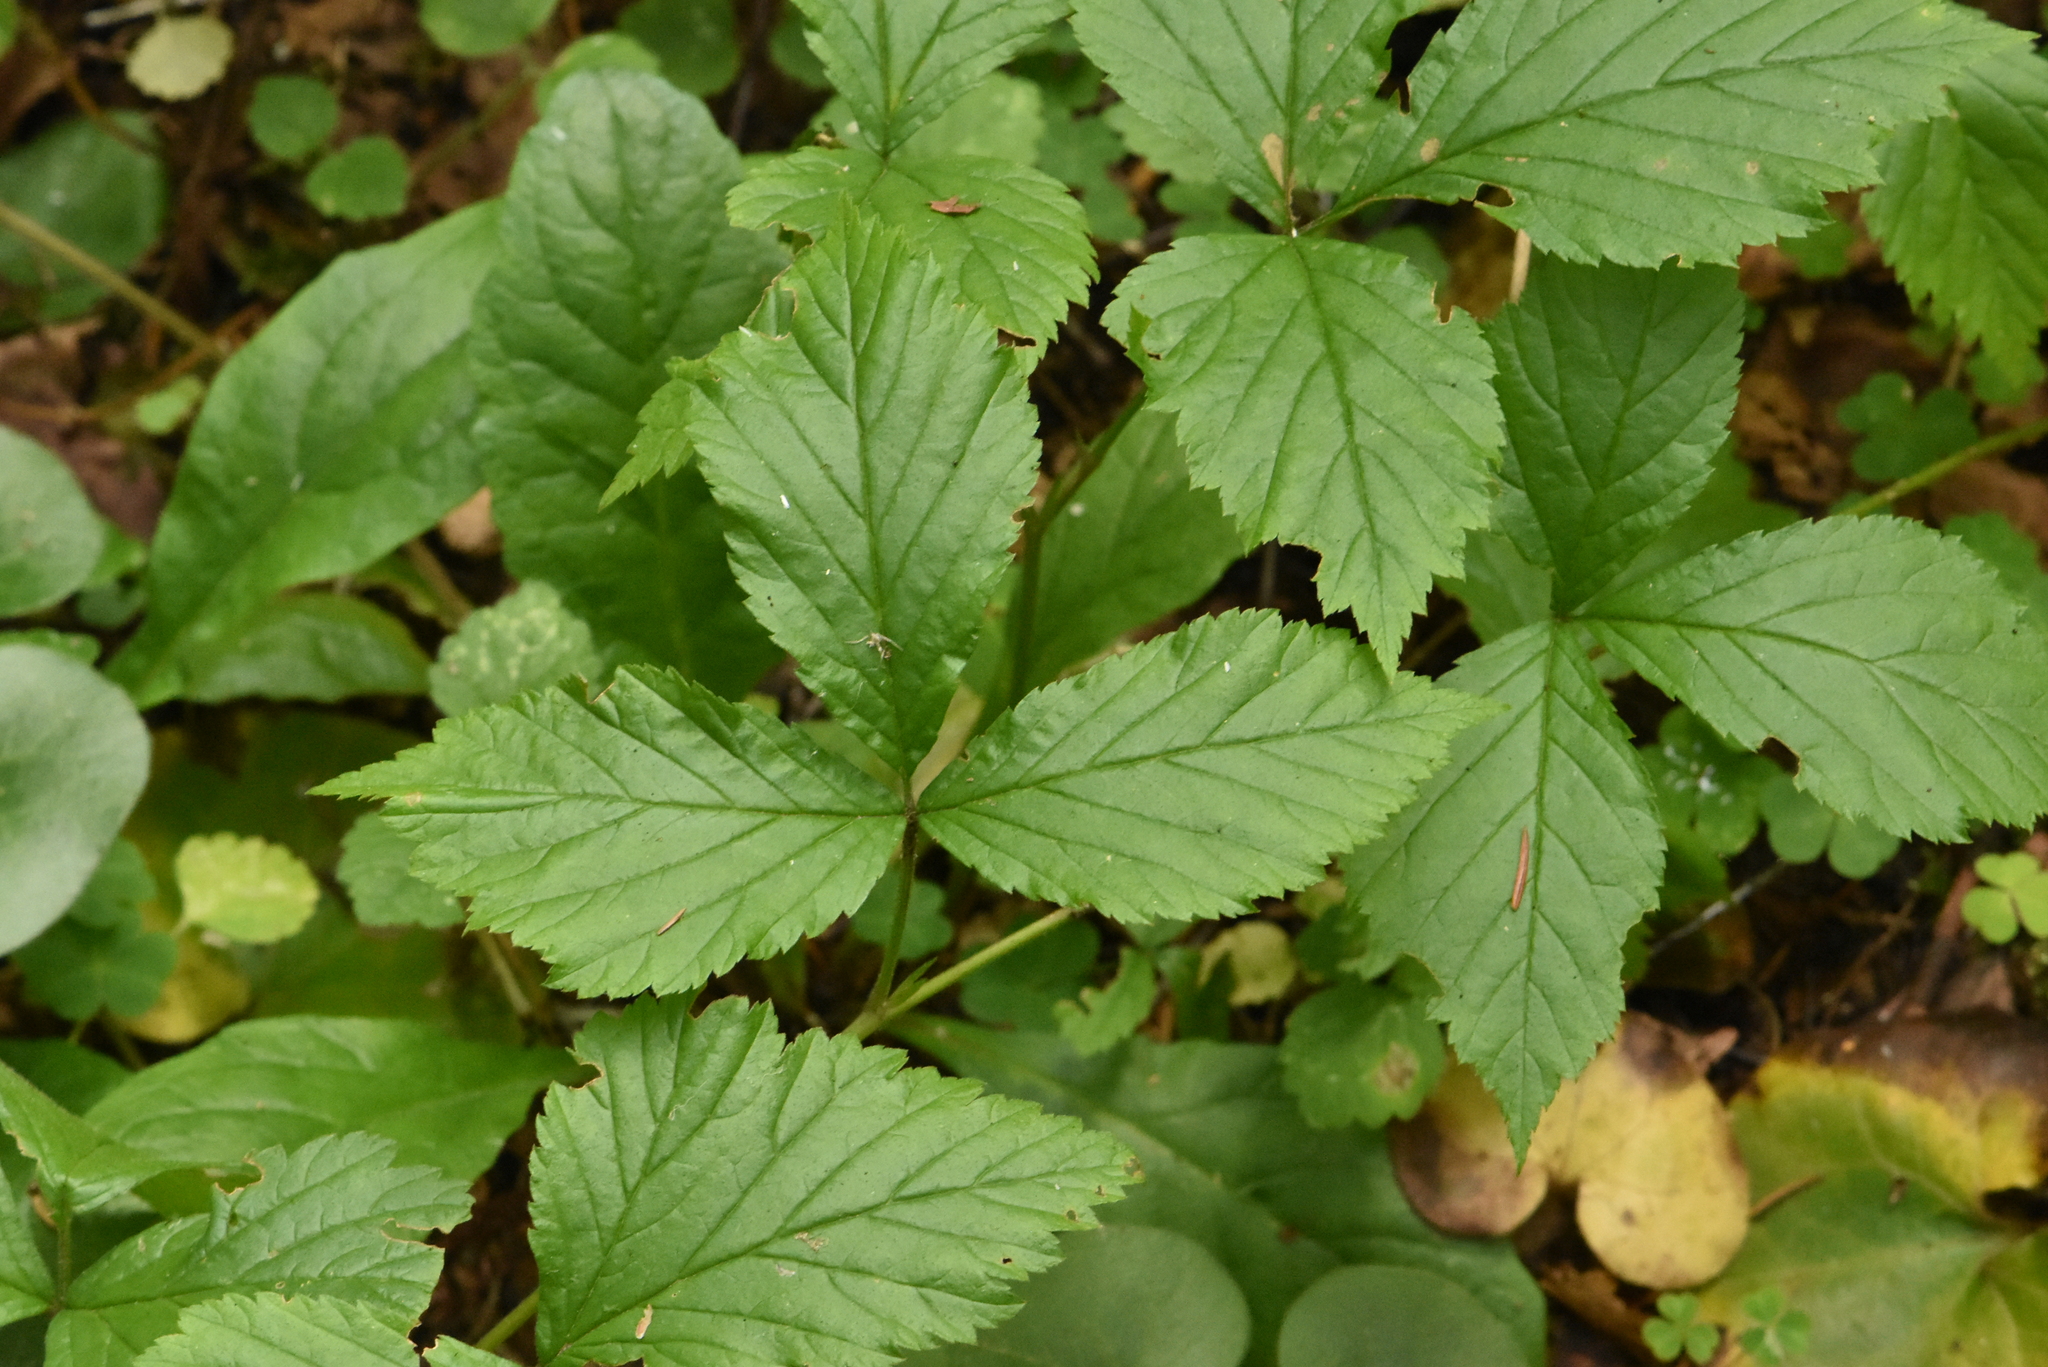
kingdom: Plantae
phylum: Tracheophyta
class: Magnoliopsida
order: Rosales
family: Rosaceae
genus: Rubus
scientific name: Rubus saxatilis
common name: Stone bramble
